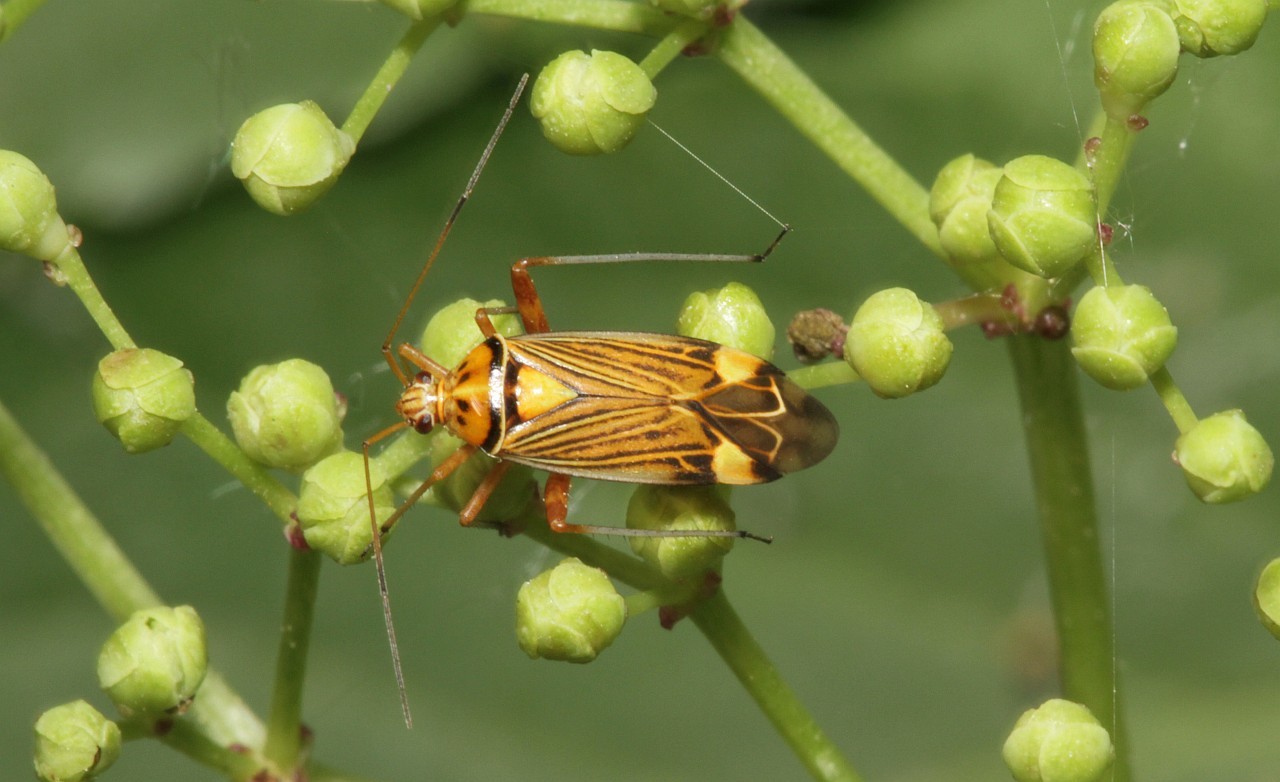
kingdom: Animalia
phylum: Arthropoda
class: Insecta
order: Hemiptera
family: Miridae
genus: Rhabdomiris
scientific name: Rhabdomiris striatellus
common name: Plant bug
